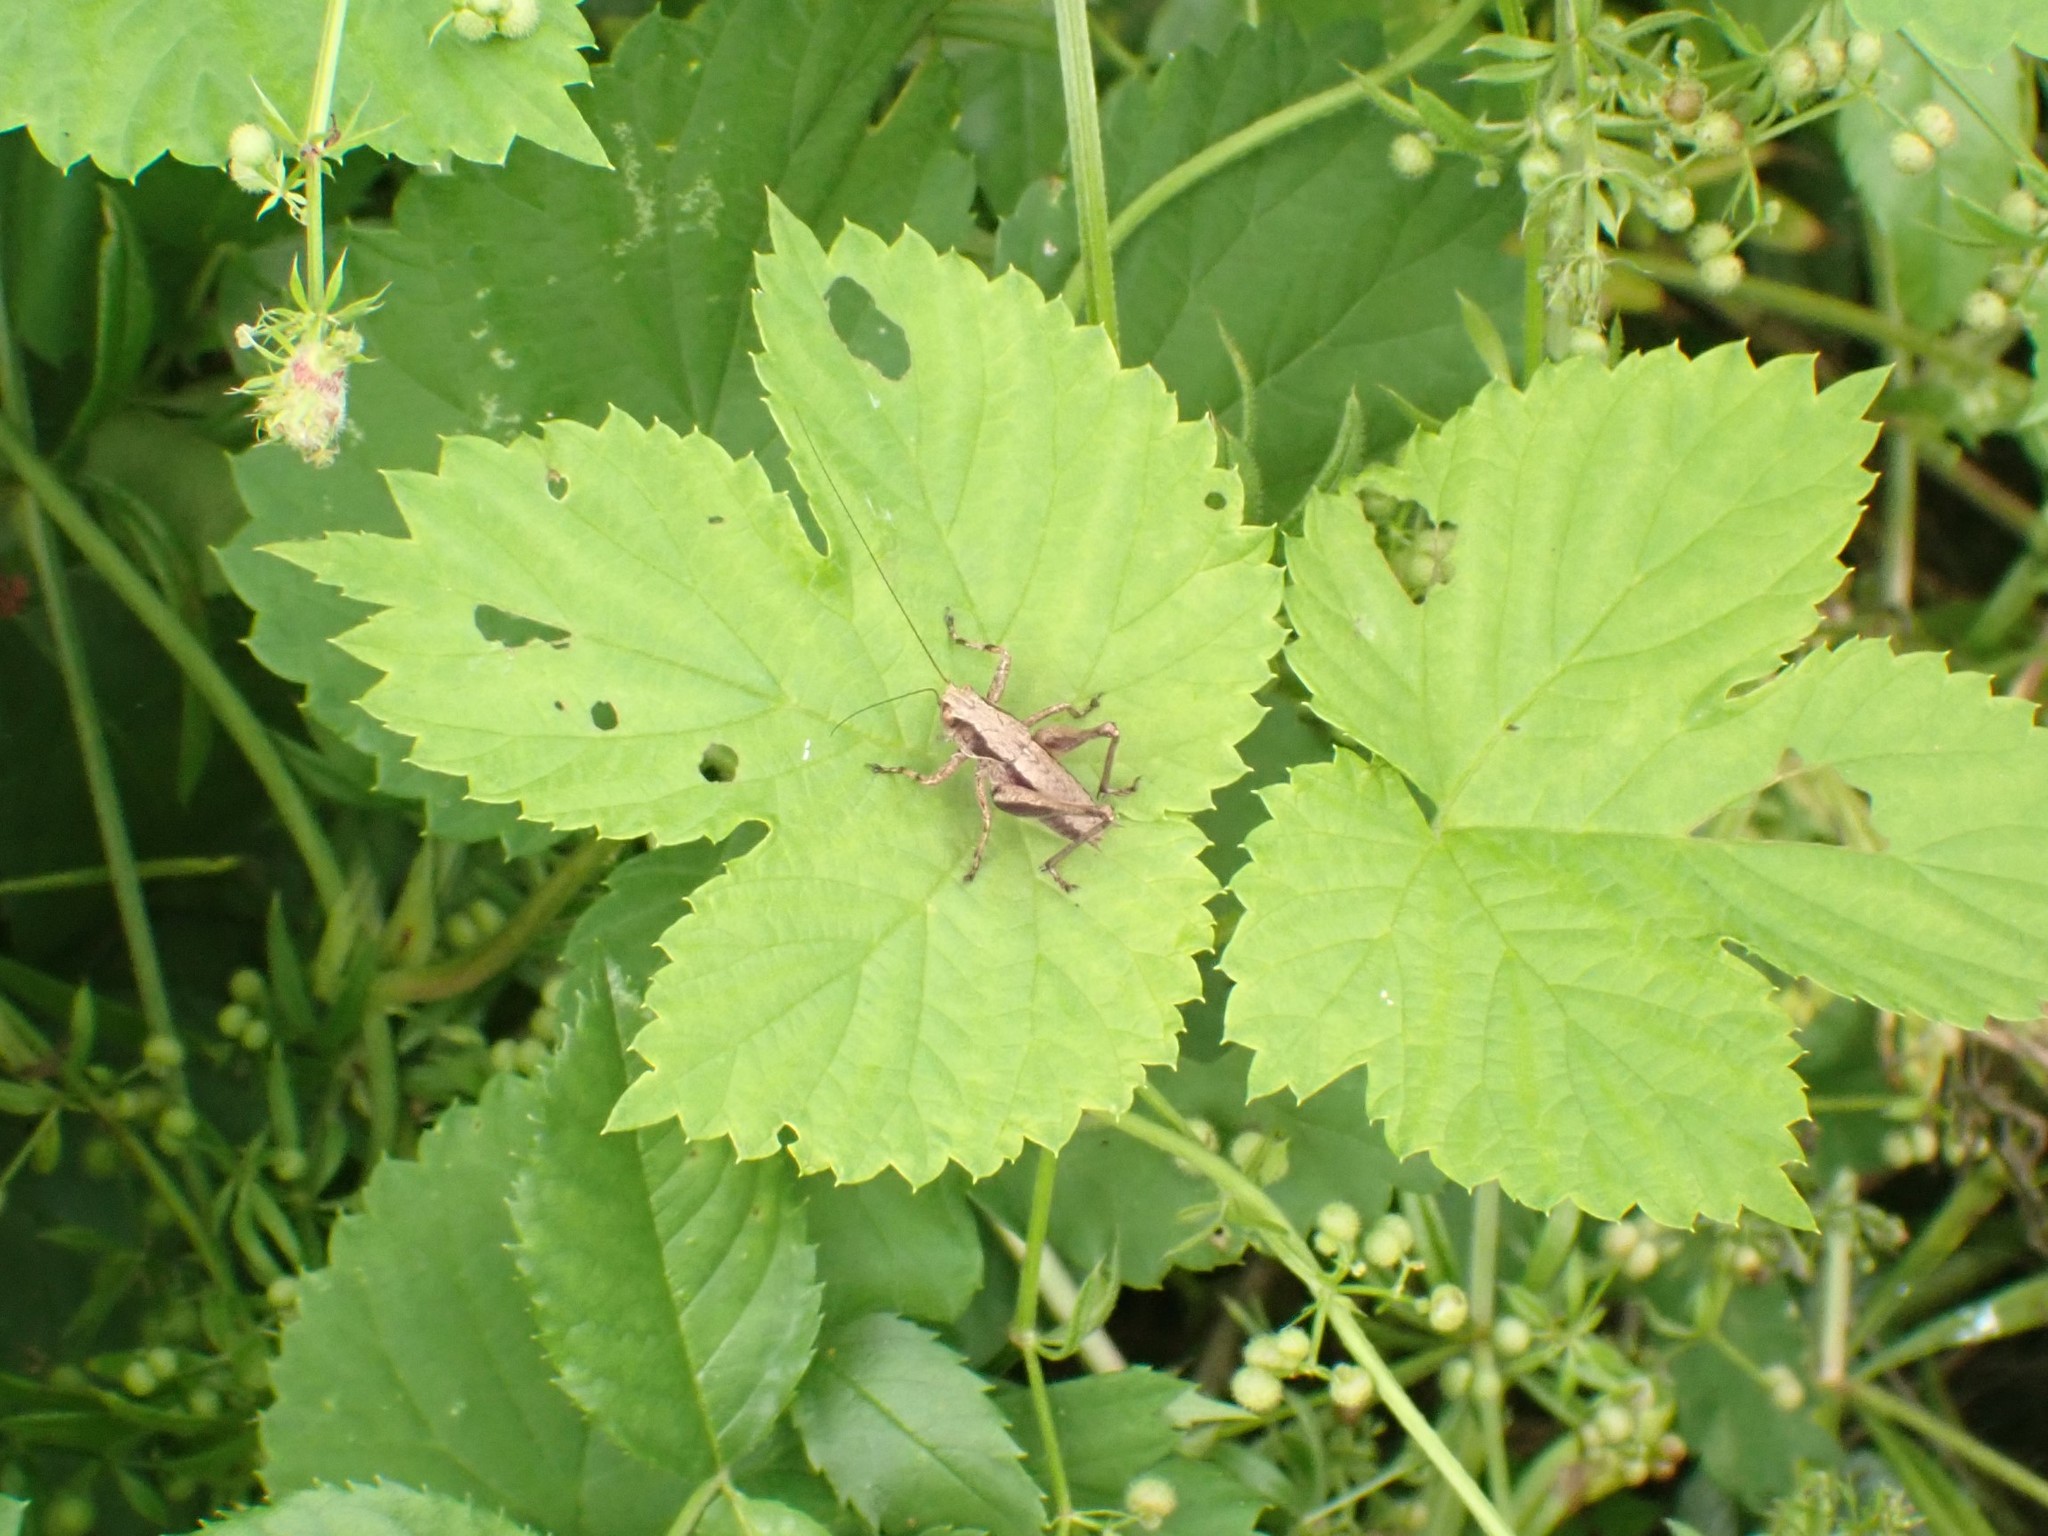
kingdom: Animalia
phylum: Arthropoda
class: Insecta
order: Orthoptera
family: Tettigoniidae
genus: Pholidoptera
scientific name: Pholidoptera griseoaptera
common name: Dark bush-cricket
